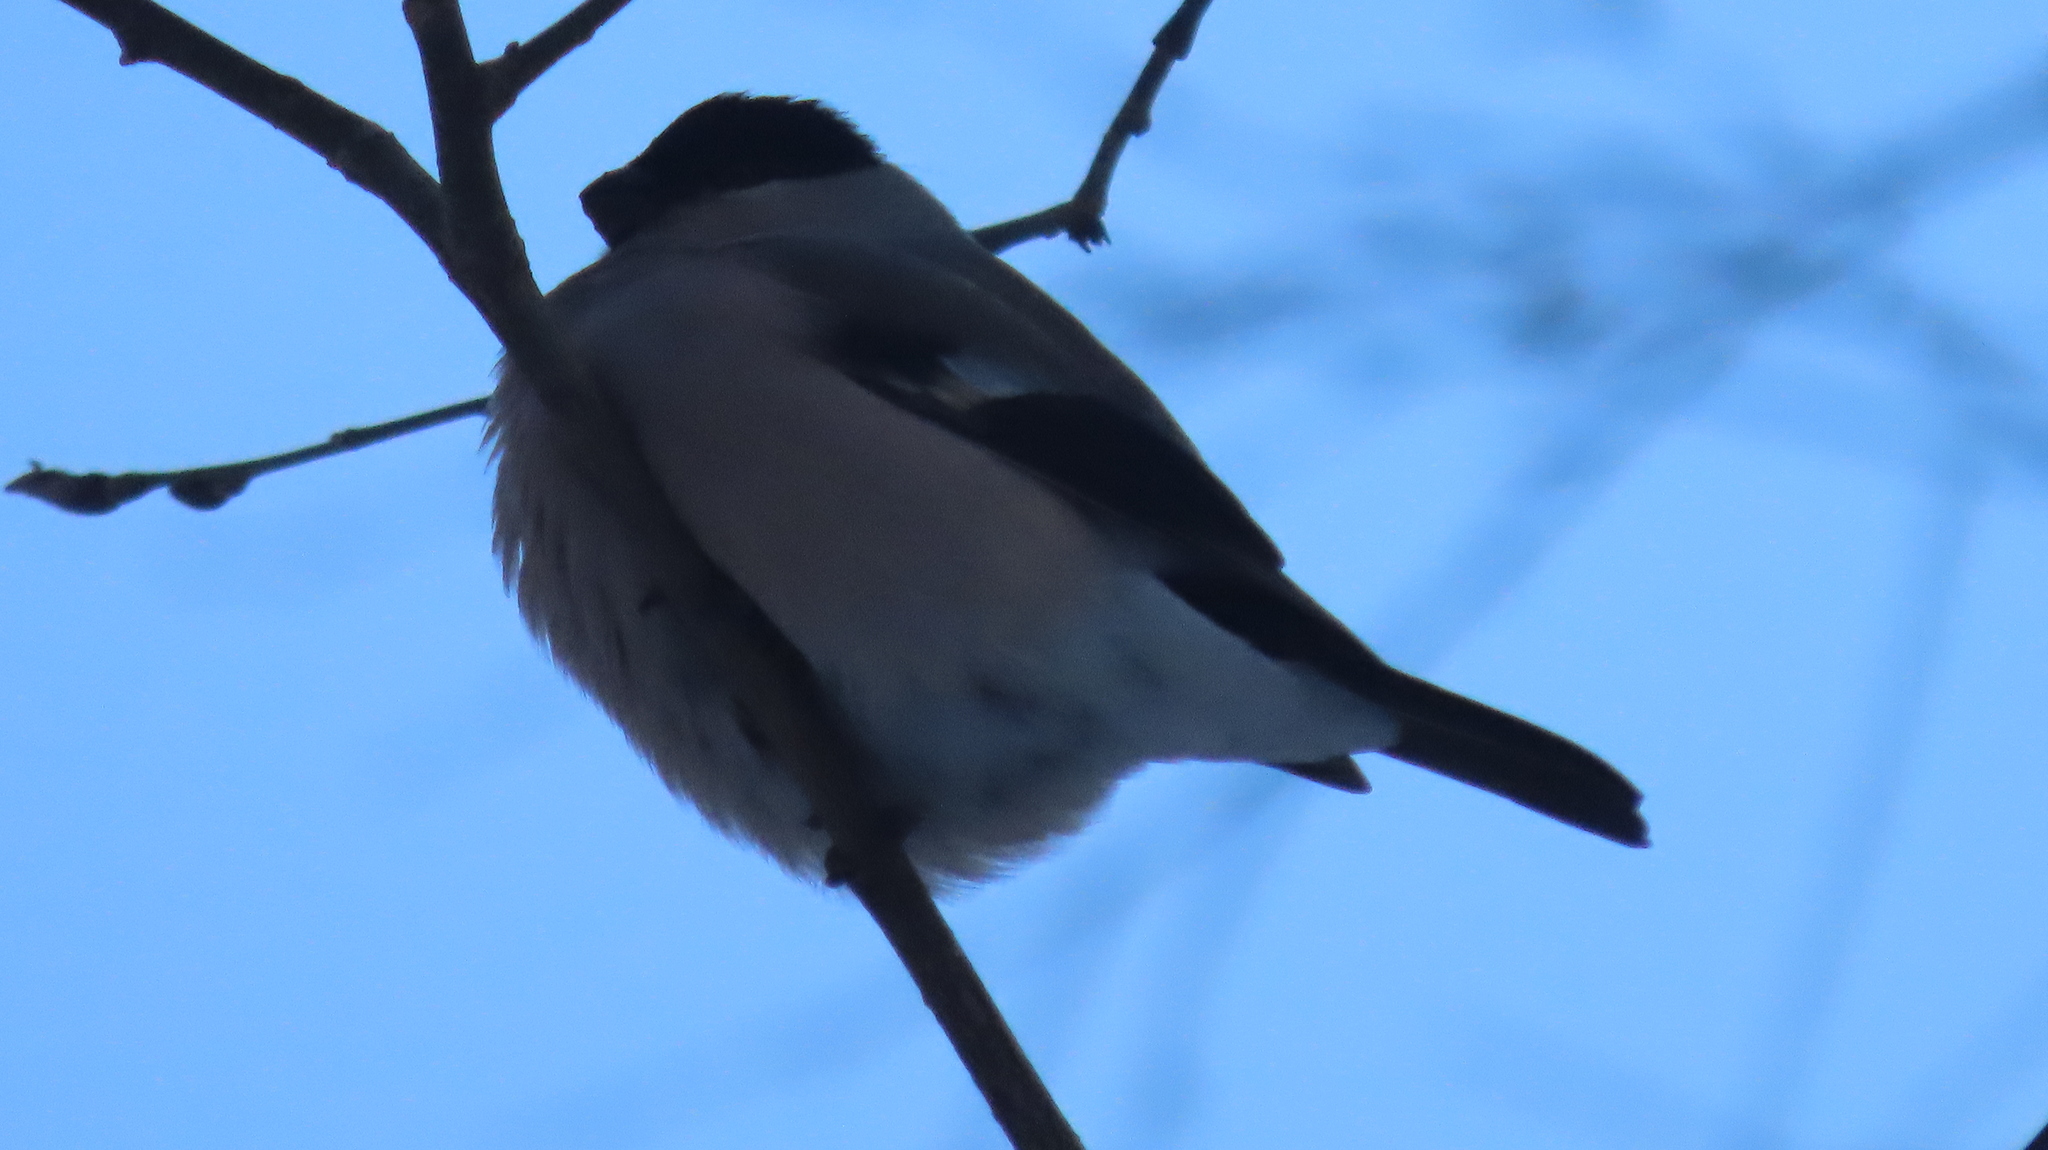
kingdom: Animalia
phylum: Chordata
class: Aves
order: Passeriformes
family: Fringillidae
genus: Pyrrhula
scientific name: Pyrrhula pyrrhula
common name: Eurasian bullfinch
